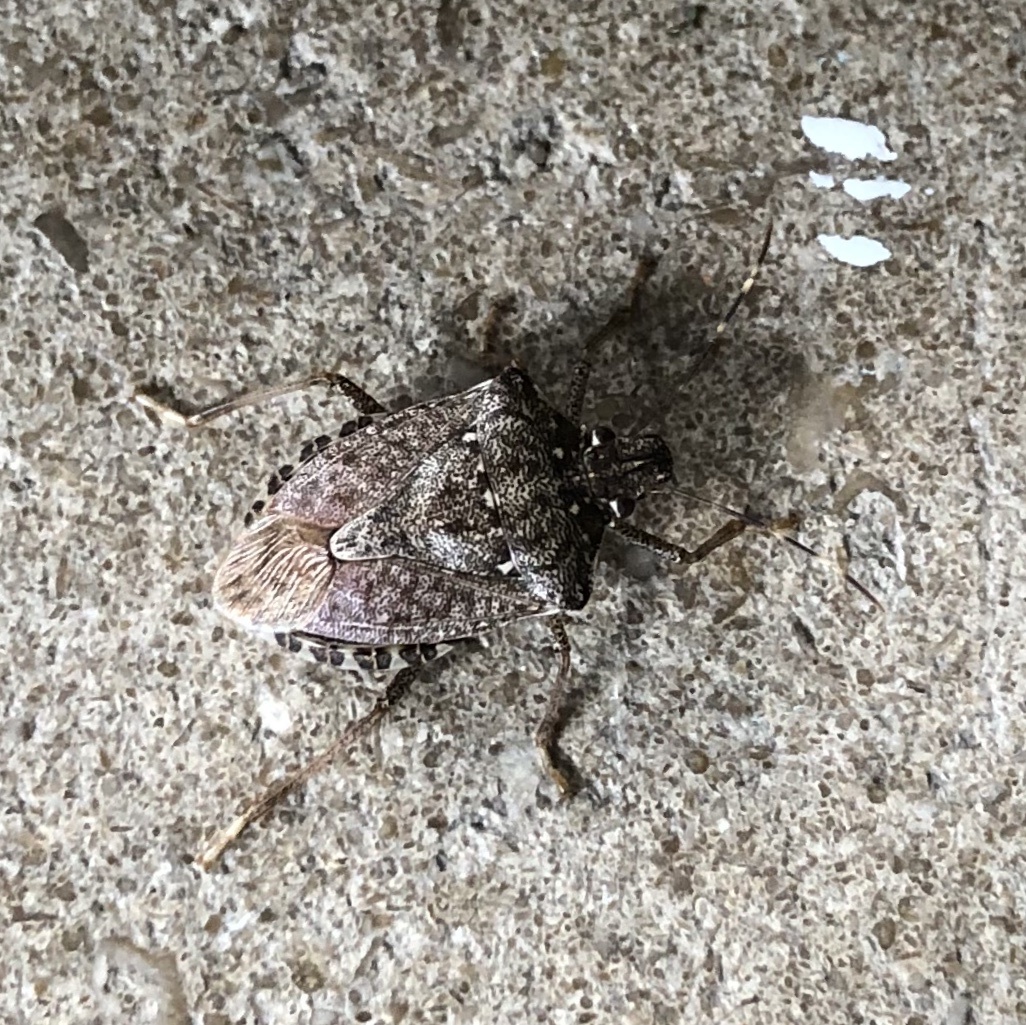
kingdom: Animalia
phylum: Arthropoda
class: Insecta
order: Hemiptera
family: Pentatomidae
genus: Halyomorpha
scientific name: Halyomorpha halys
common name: Brown marmorated stink bug
